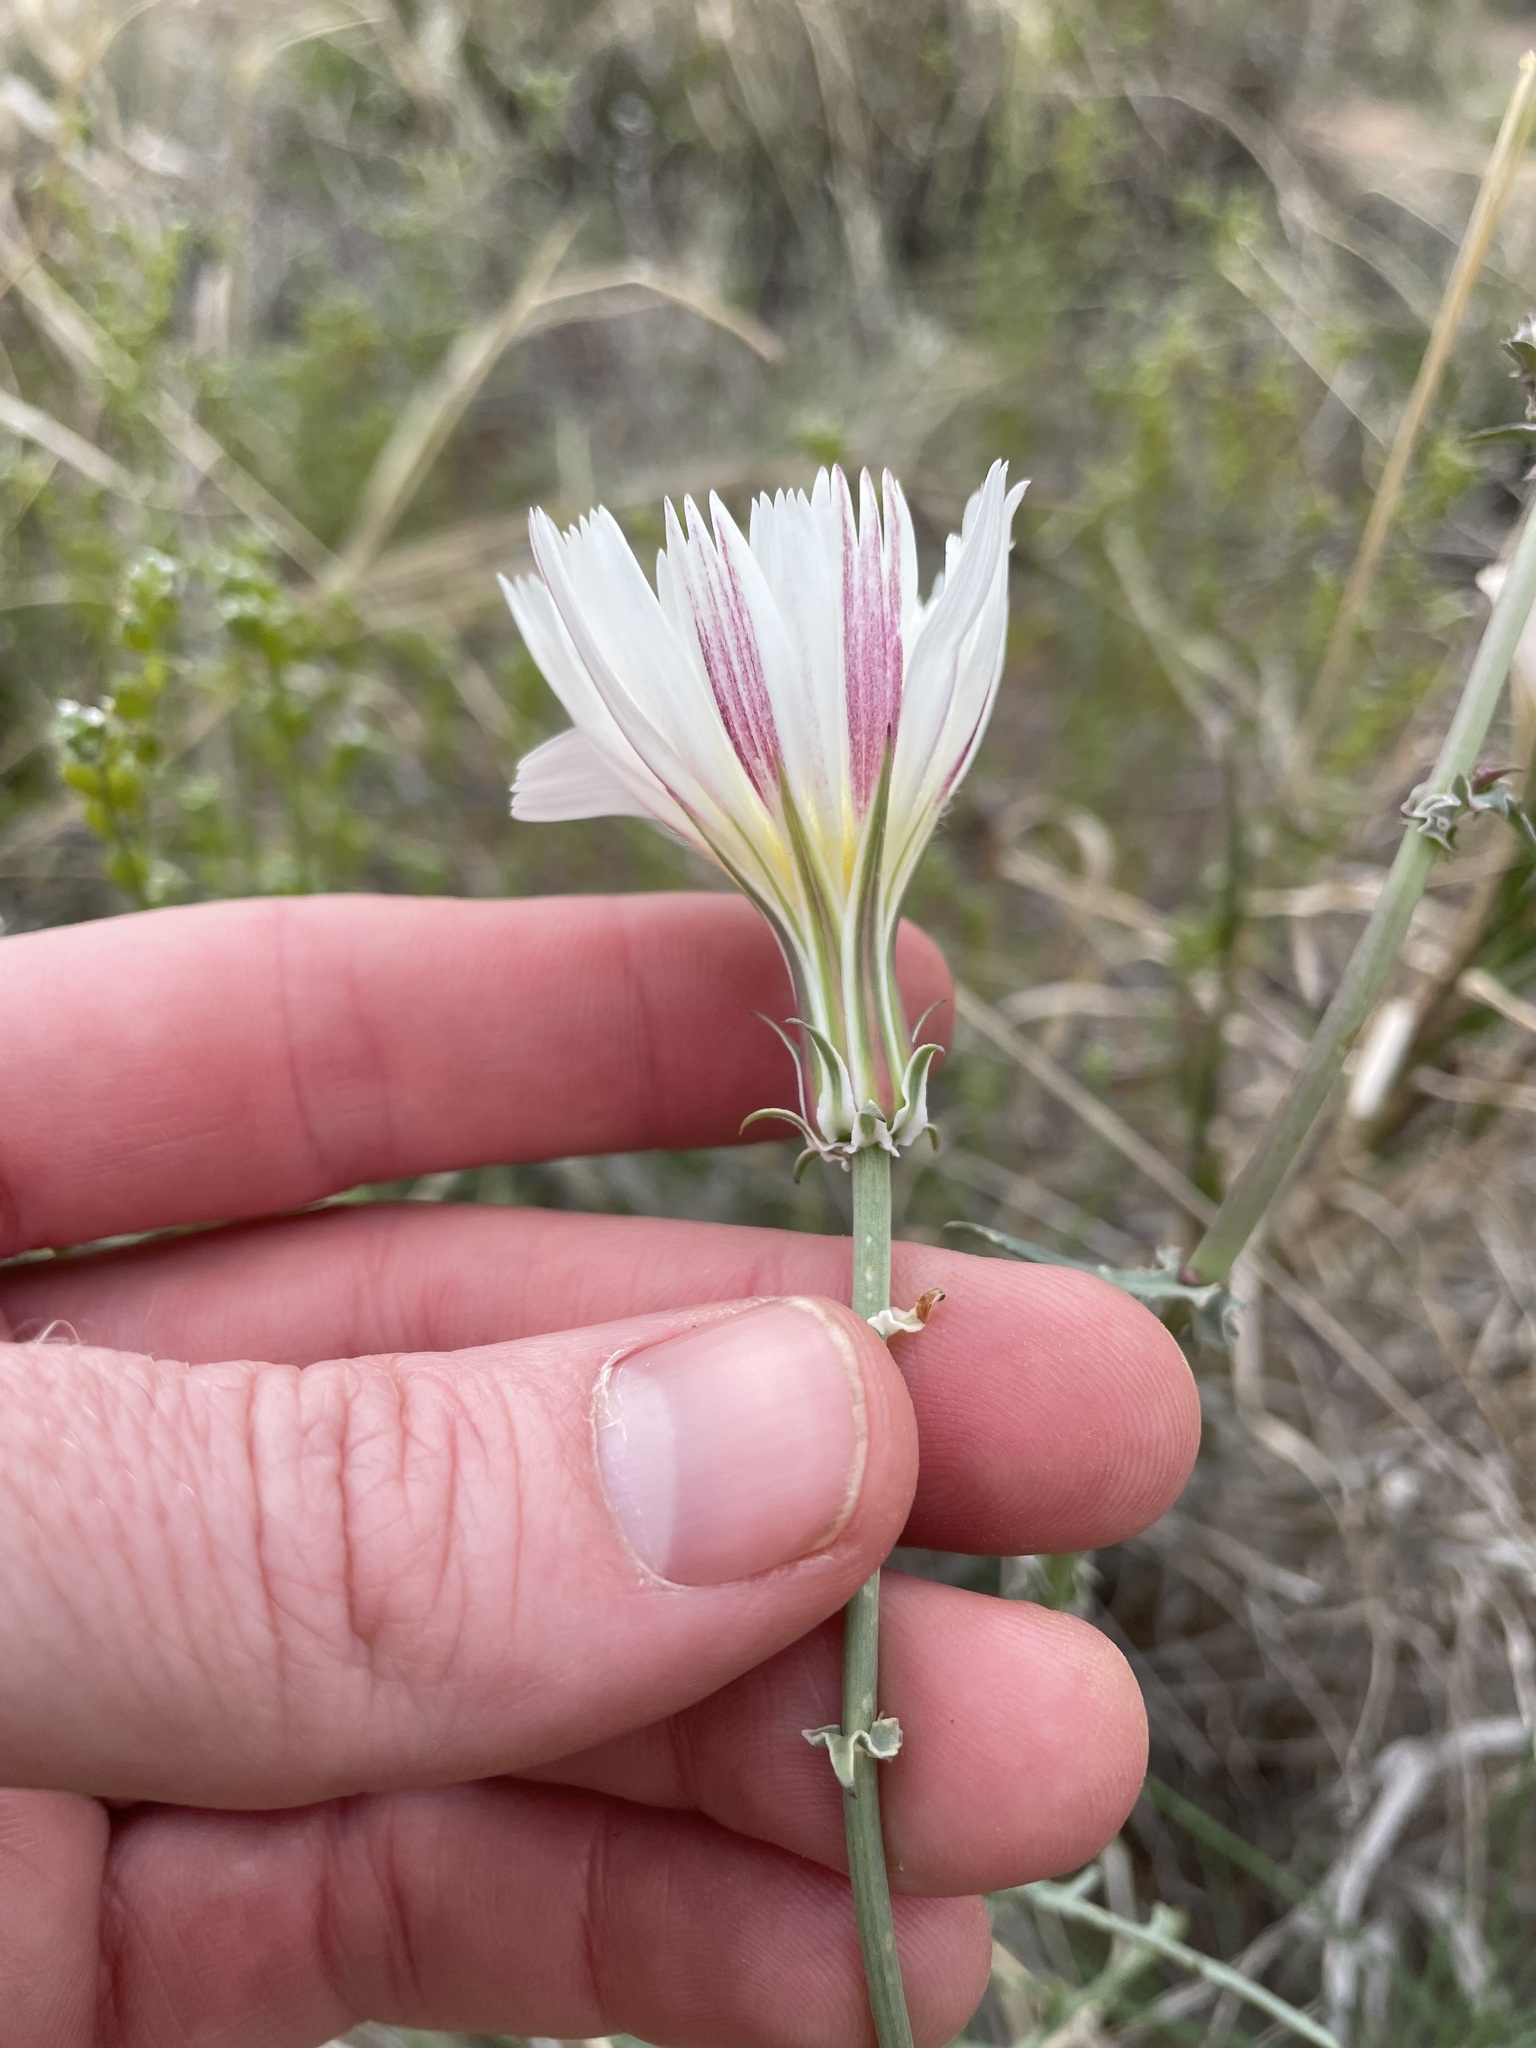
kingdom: Plantae
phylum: Tracheophyta
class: Magnoliopsida
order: Asterales
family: Asteraceae
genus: Rafinesquia
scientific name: Rafinesquia neomexicana
